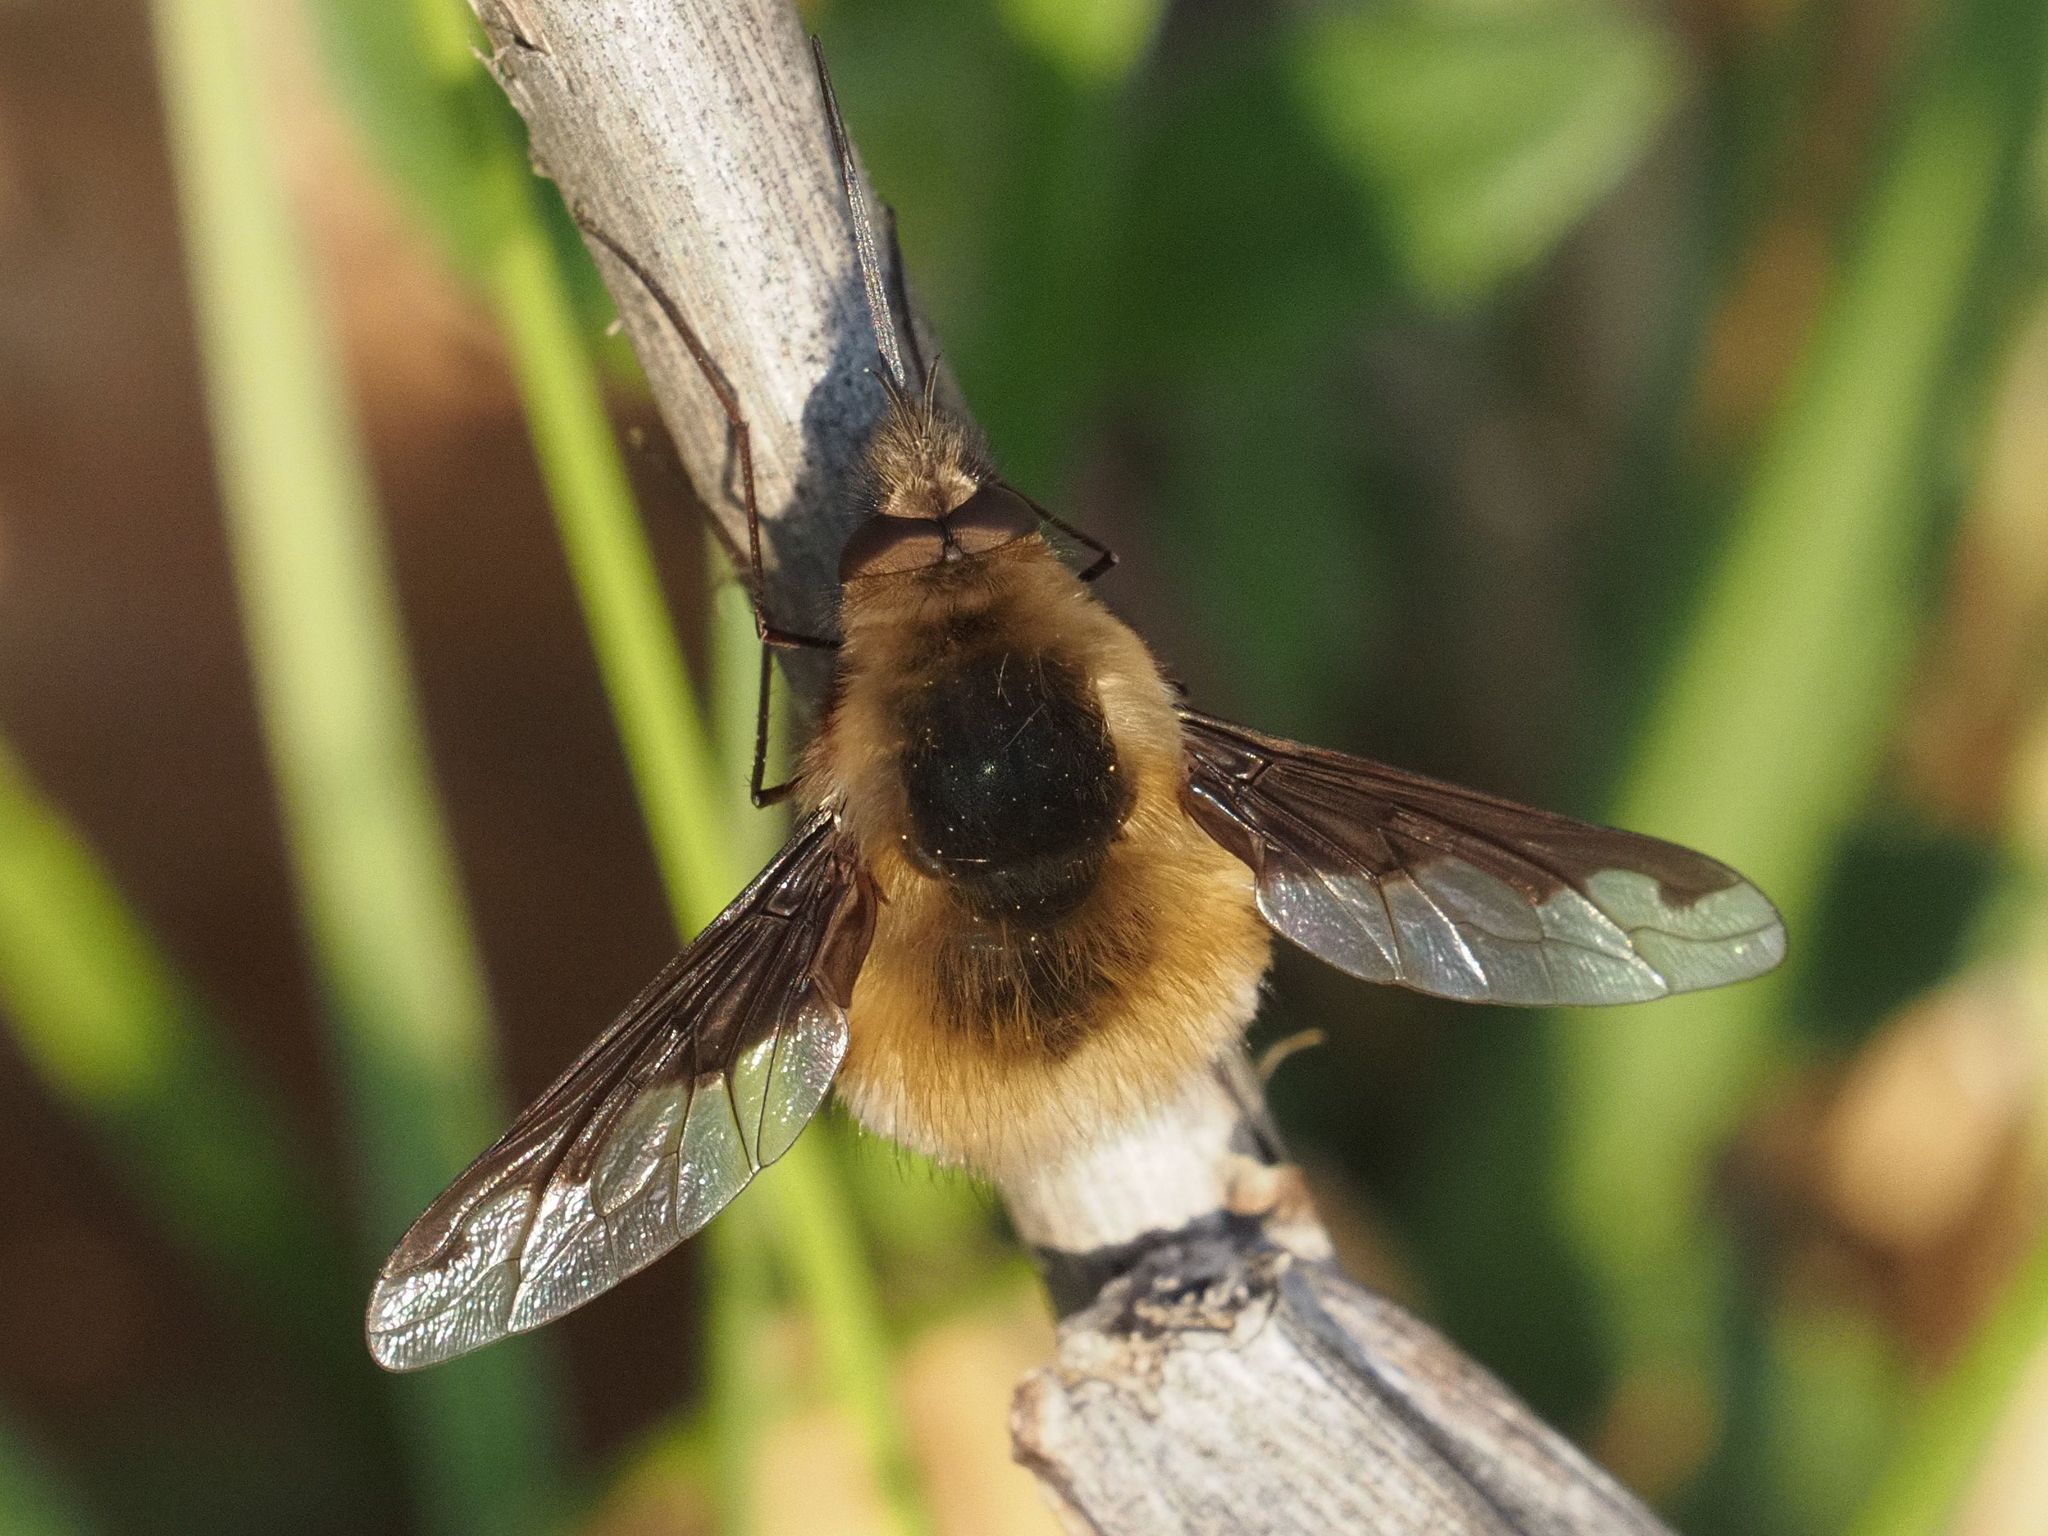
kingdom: Animalia
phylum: Arthropoda
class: Insecta
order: Diptera
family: Bombyliidae
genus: Bombylius
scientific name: Bombylius major
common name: Bee fly
